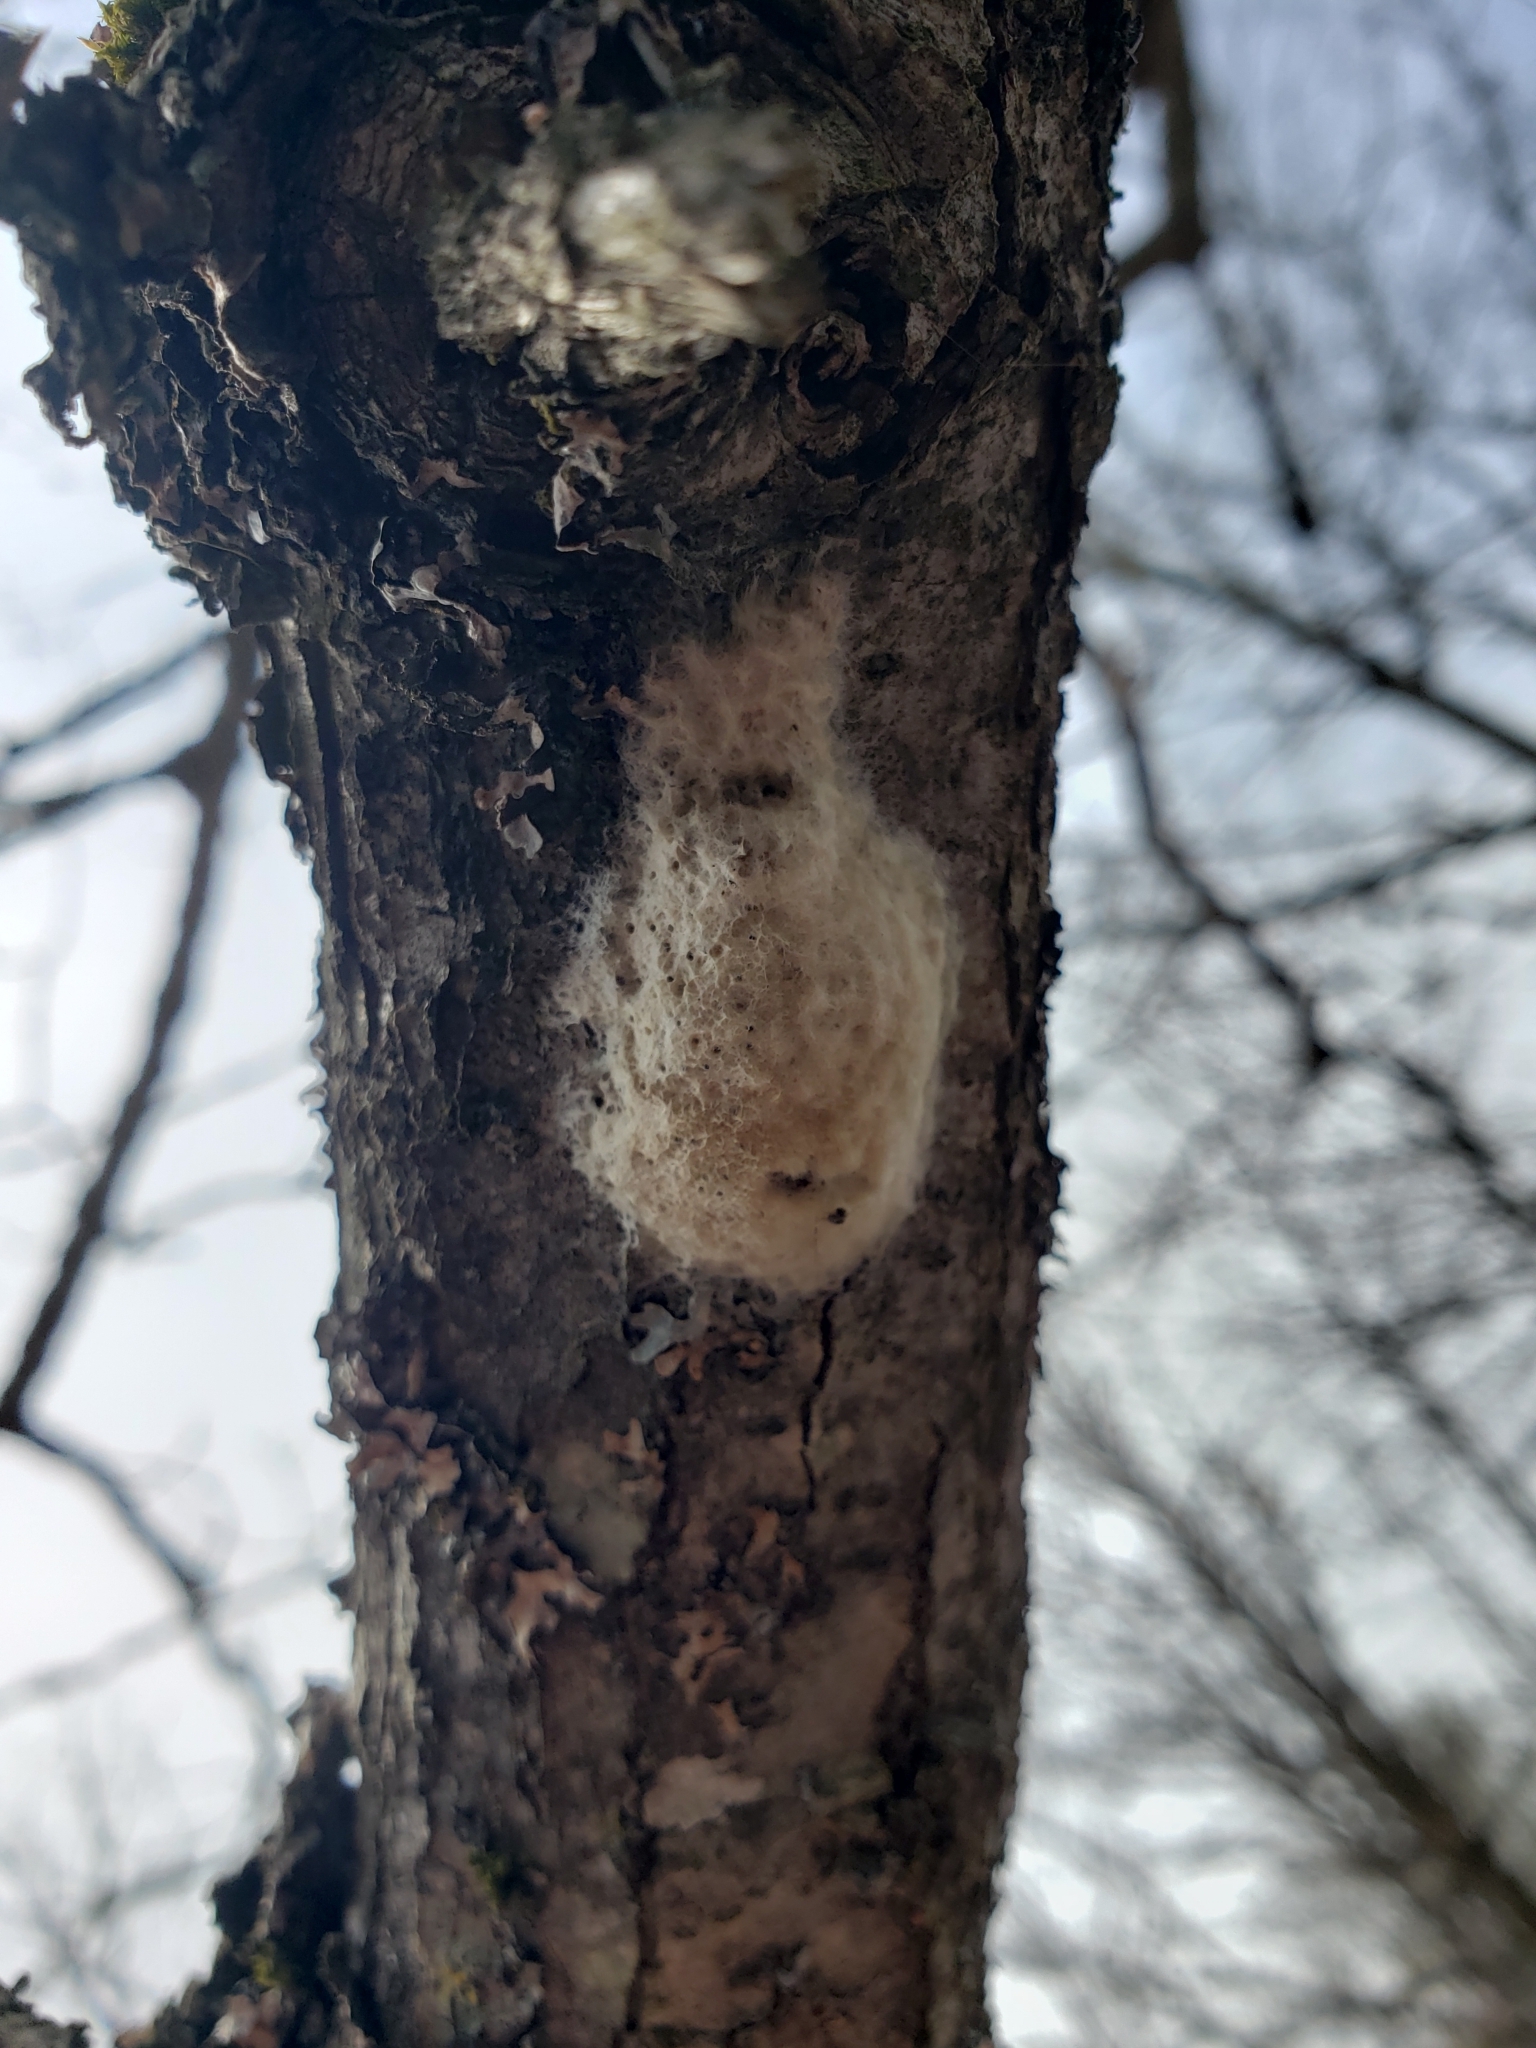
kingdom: Animalia
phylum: Arthropoda
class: Insecta
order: Lepidoptera
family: Erebidae
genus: Lymantria
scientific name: Lymantria dispar
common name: Gypsy moth
